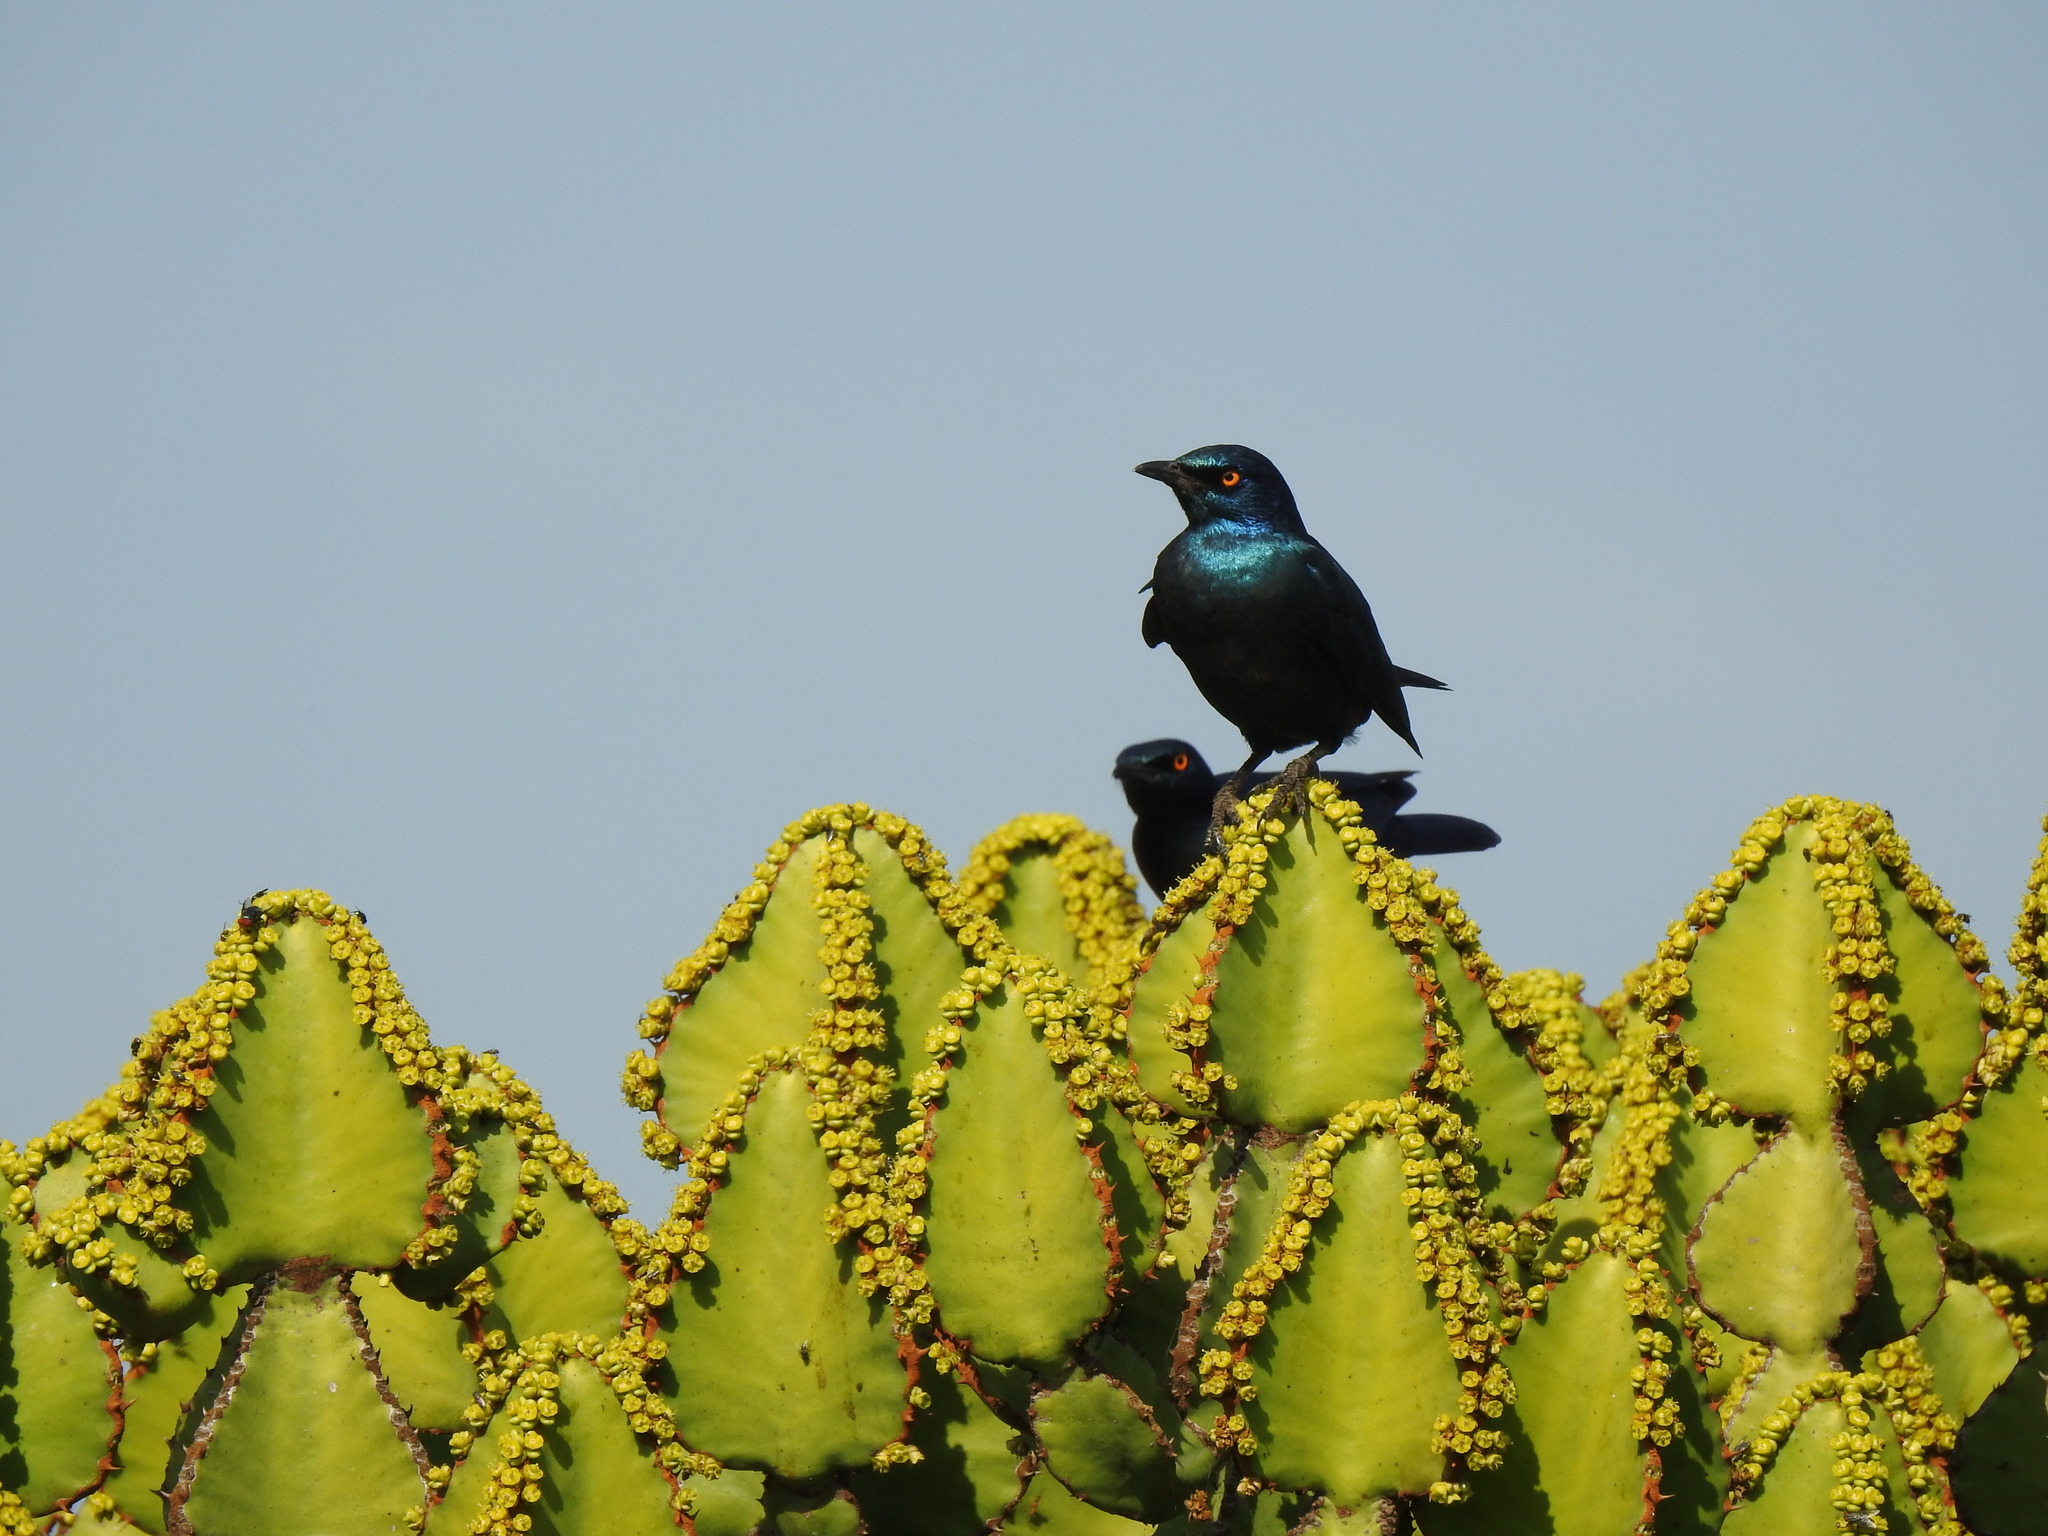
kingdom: Animalia
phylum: Chordata
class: Aves
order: Passeriformes
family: Sturnidae
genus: Lamprotornis
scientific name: Lamprotornis nitens
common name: Cape starling
